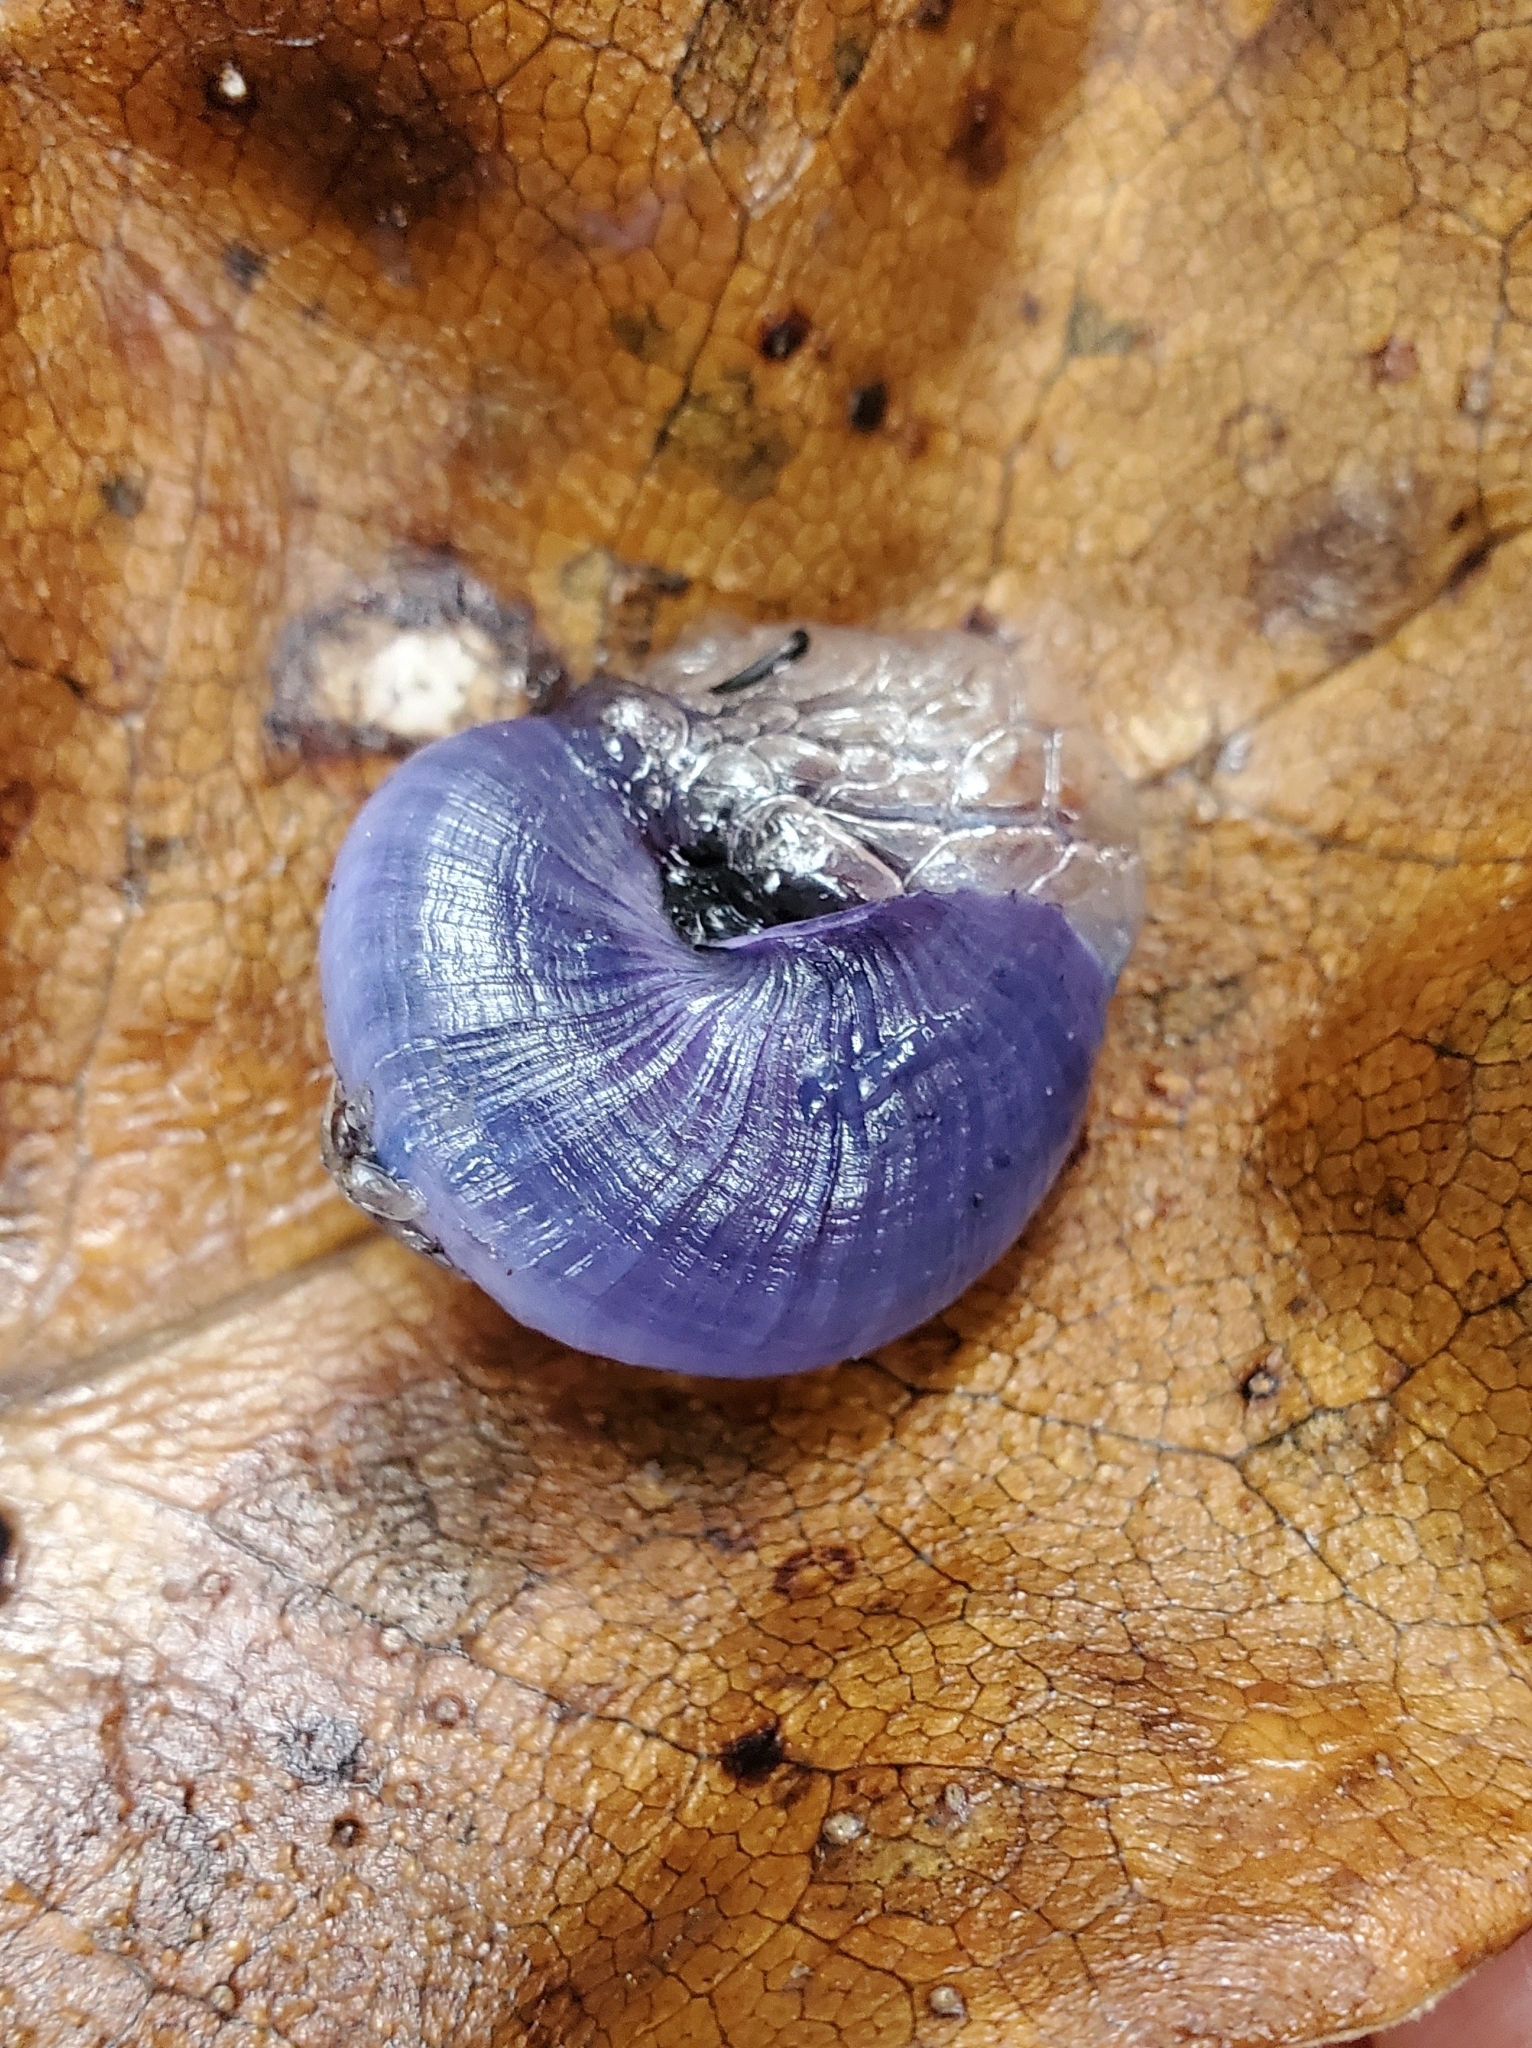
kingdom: Animalia
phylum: Mollusca
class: Gastropoda
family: Epitoniidae
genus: Janthina
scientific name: Janthina janthina
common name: Common janthina
